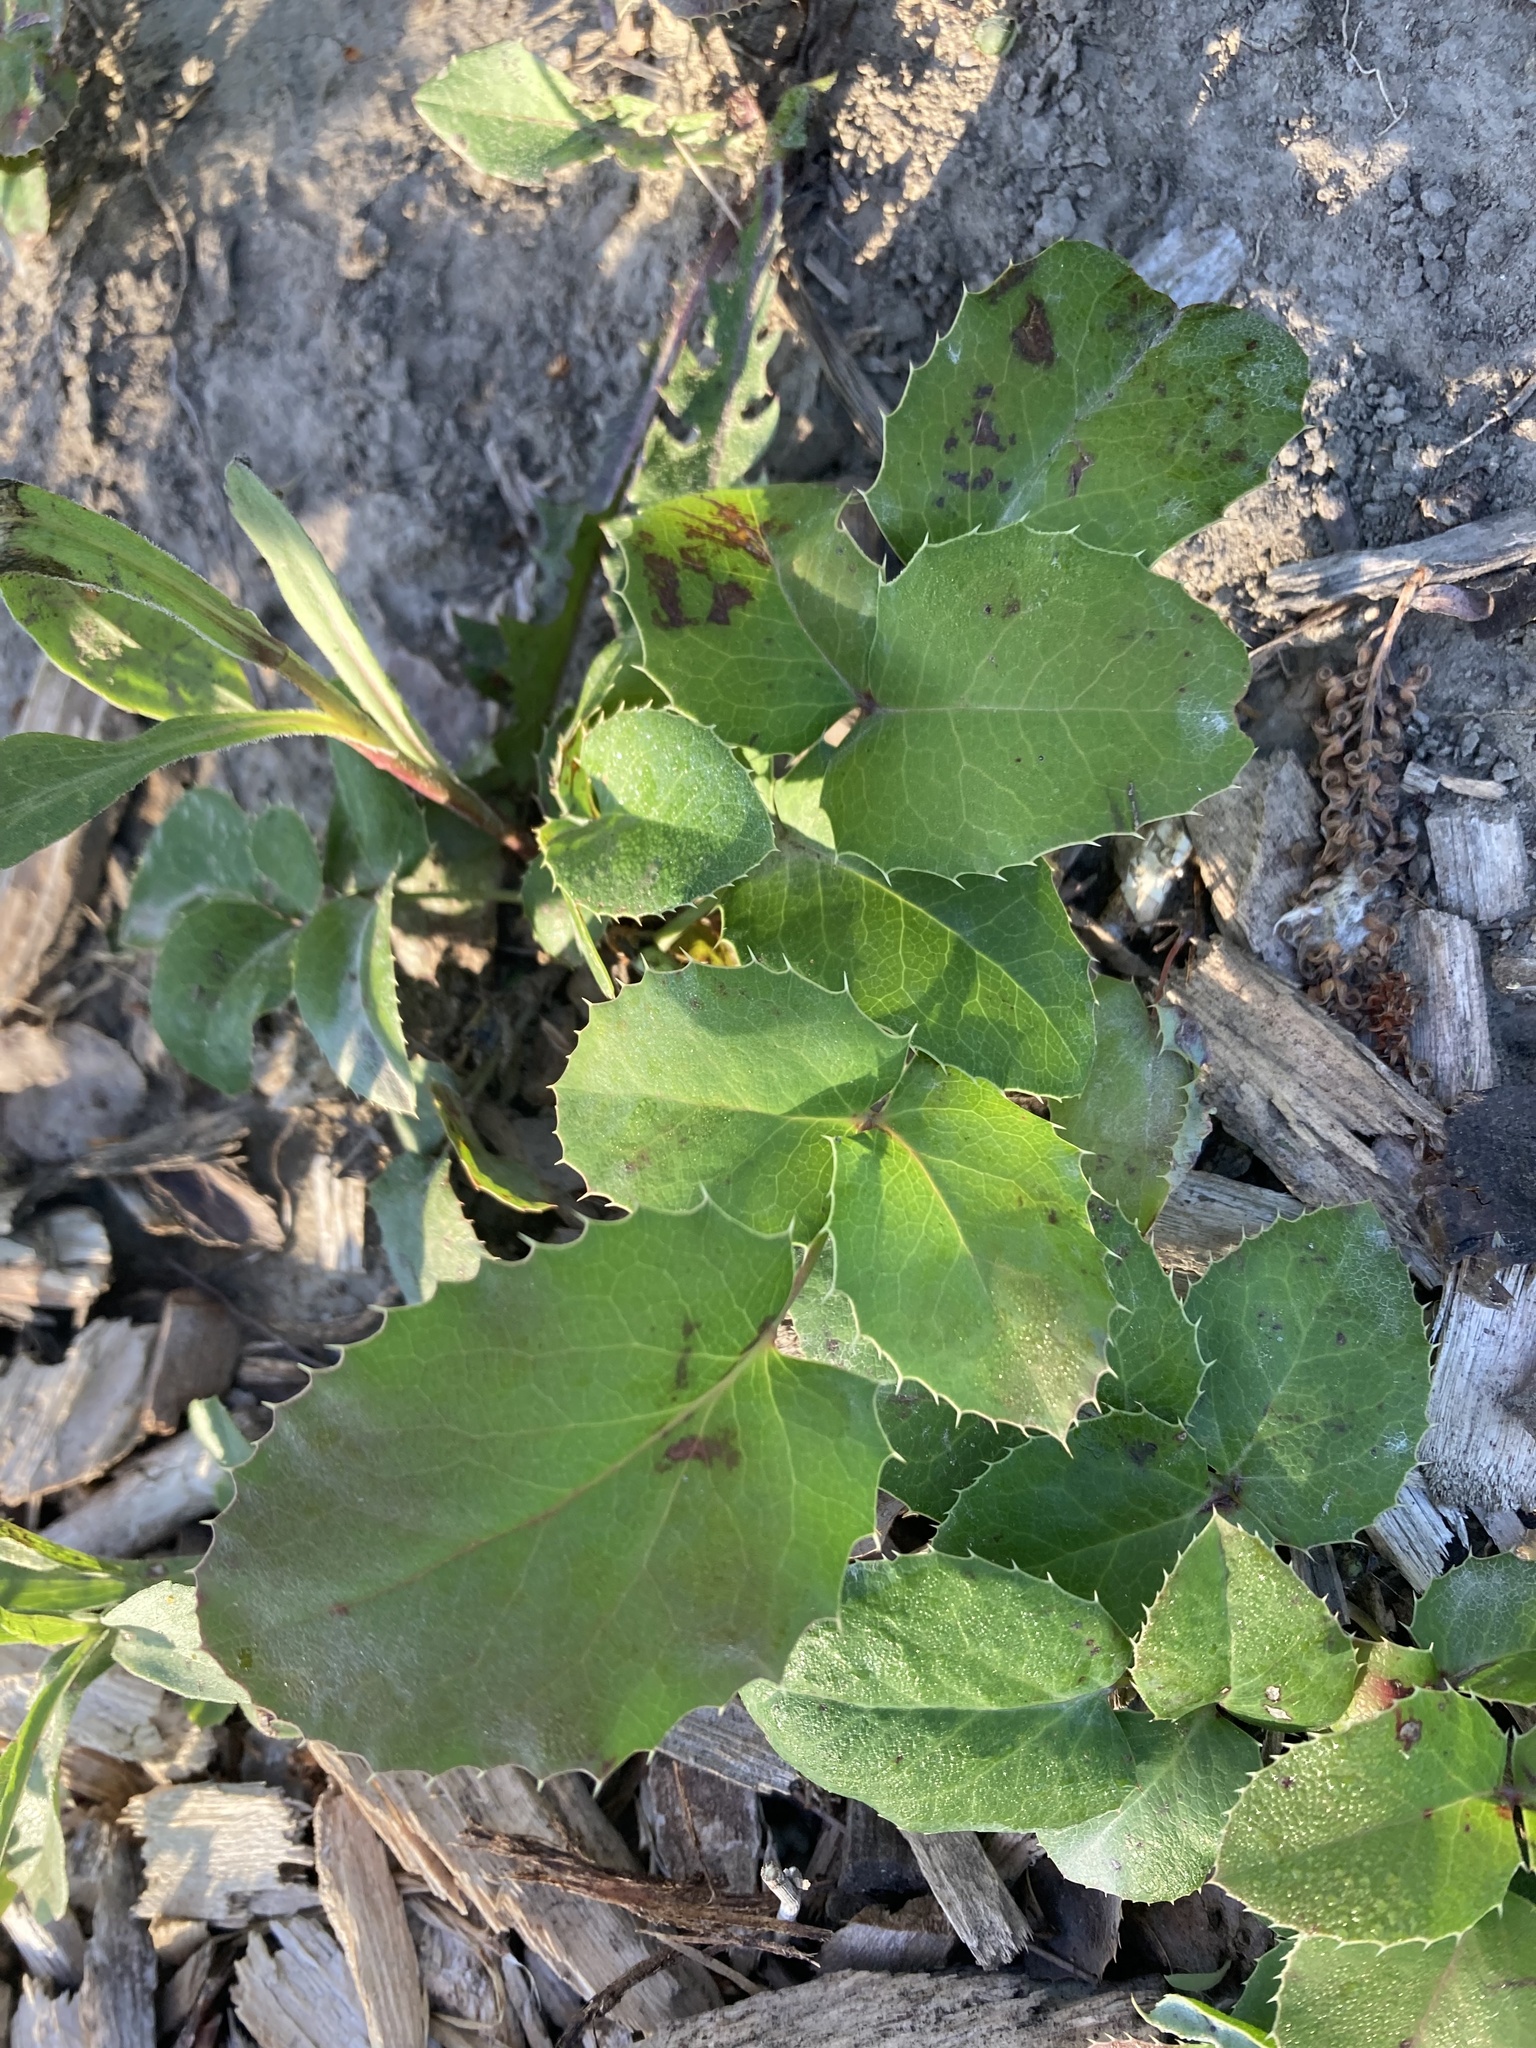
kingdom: Plantae
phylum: Tracheophyta
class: Magnoliopsida
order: Ranunculales
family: Berberidaceae
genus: Mahonia
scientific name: Mahonia repens
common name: Creeping oregon-grape
